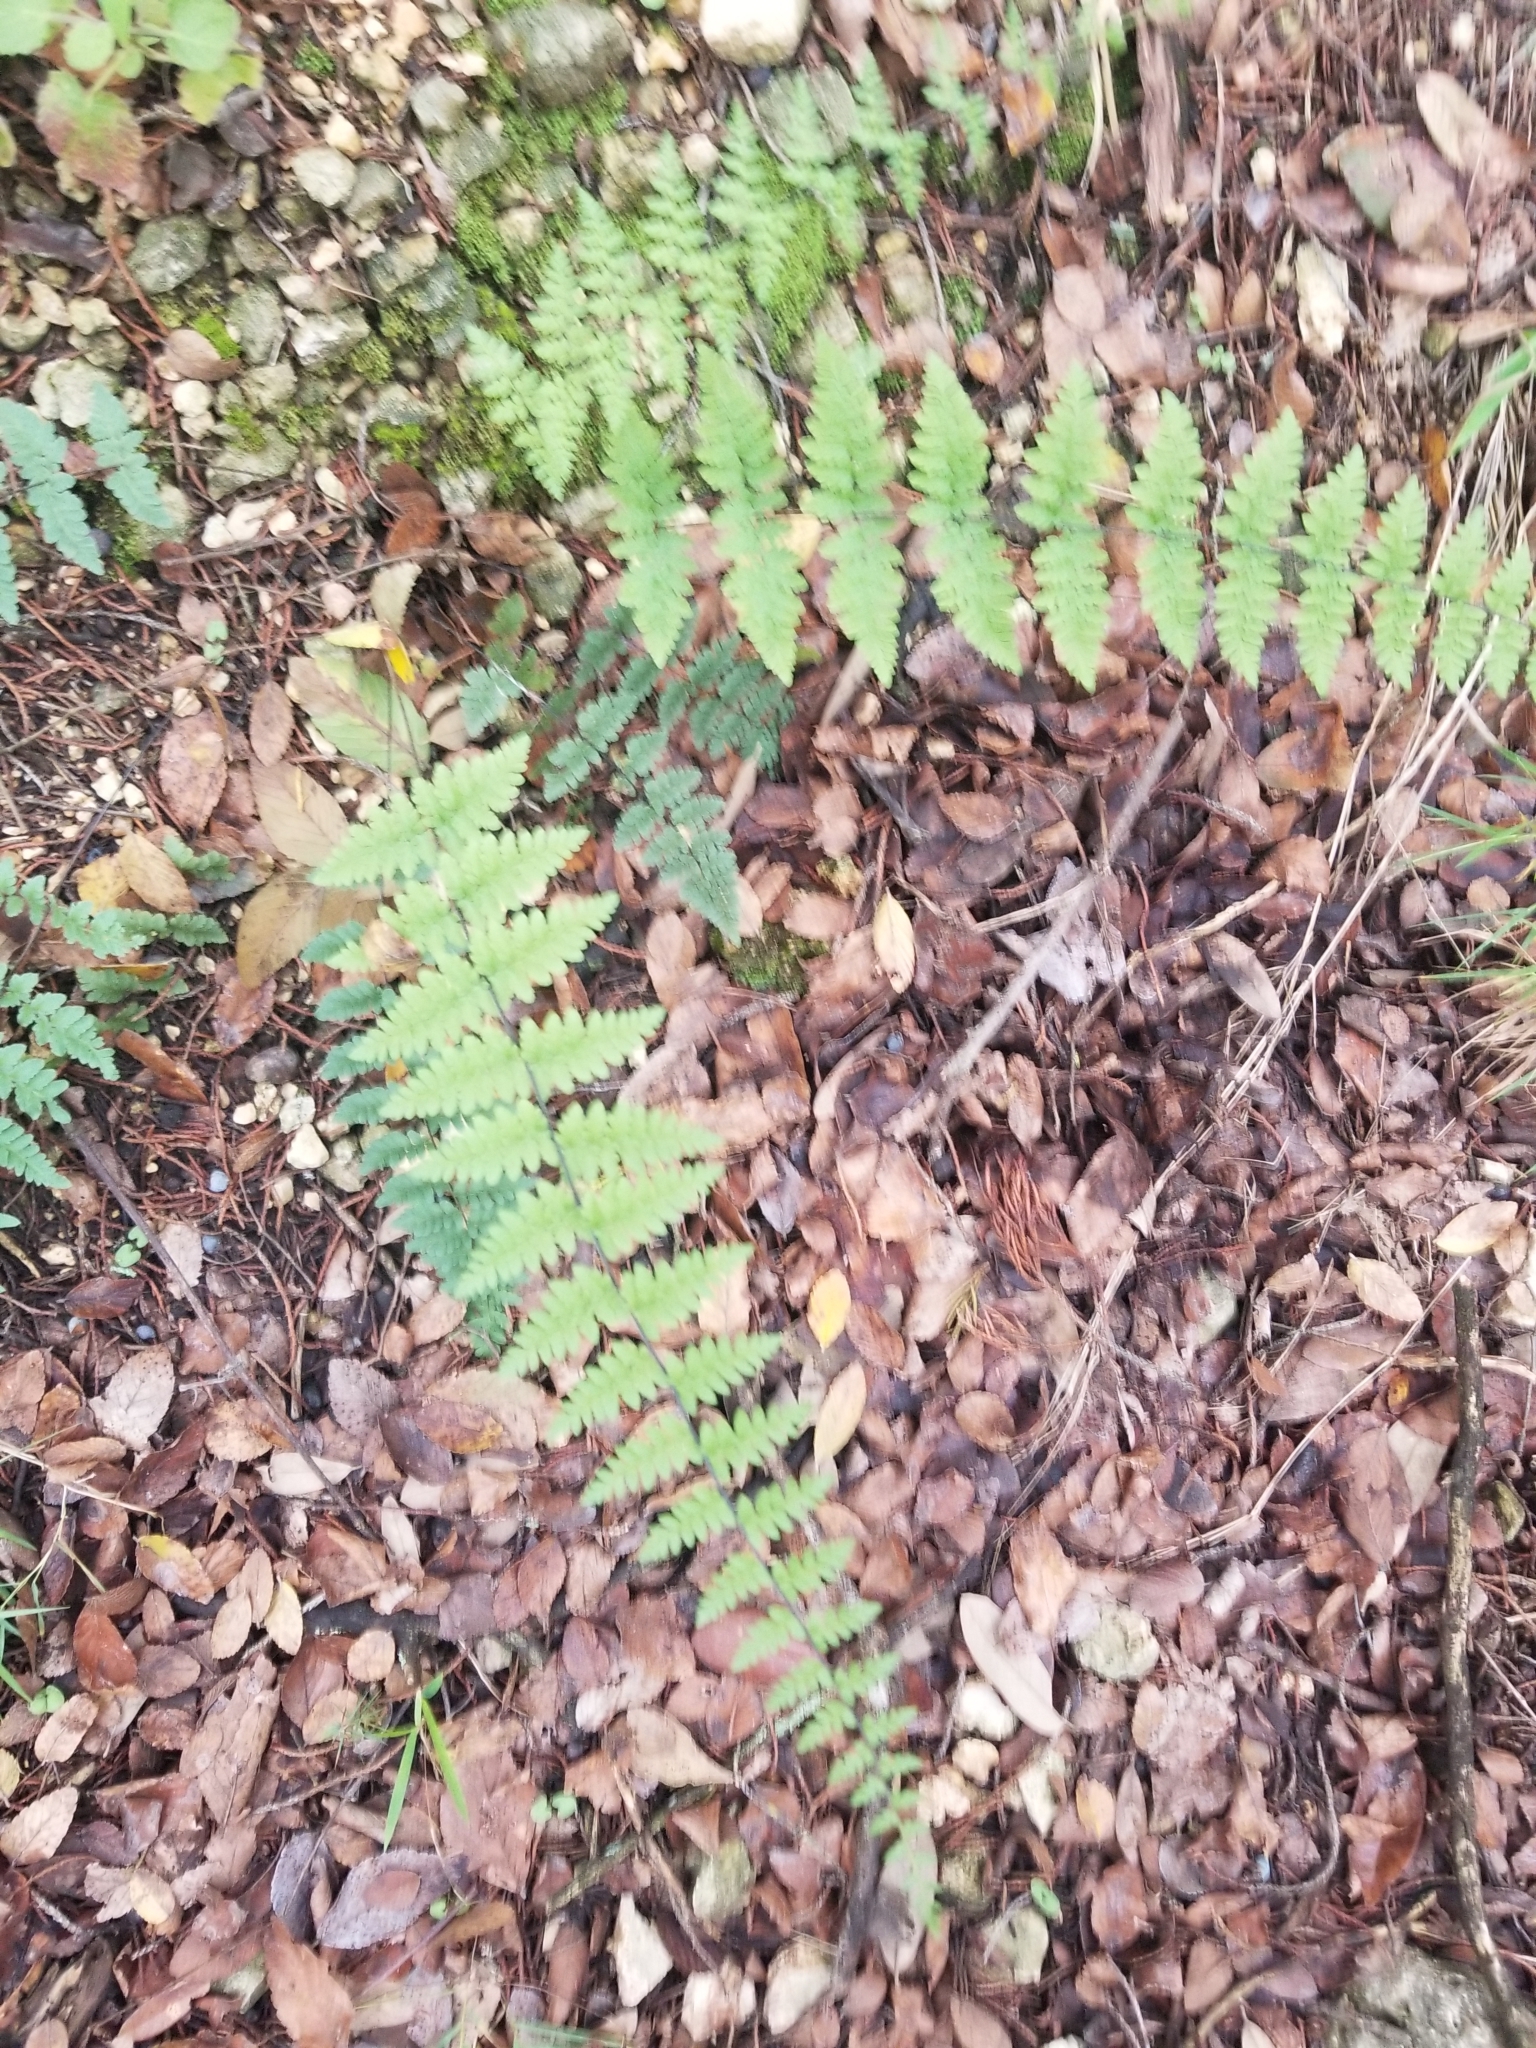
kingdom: Plantae
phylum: Tracheophyta
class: Polypodiopsida
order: Polypodiales
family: Pteridaceae
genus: Myriopteris
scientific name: Myriopteris alabamensis
